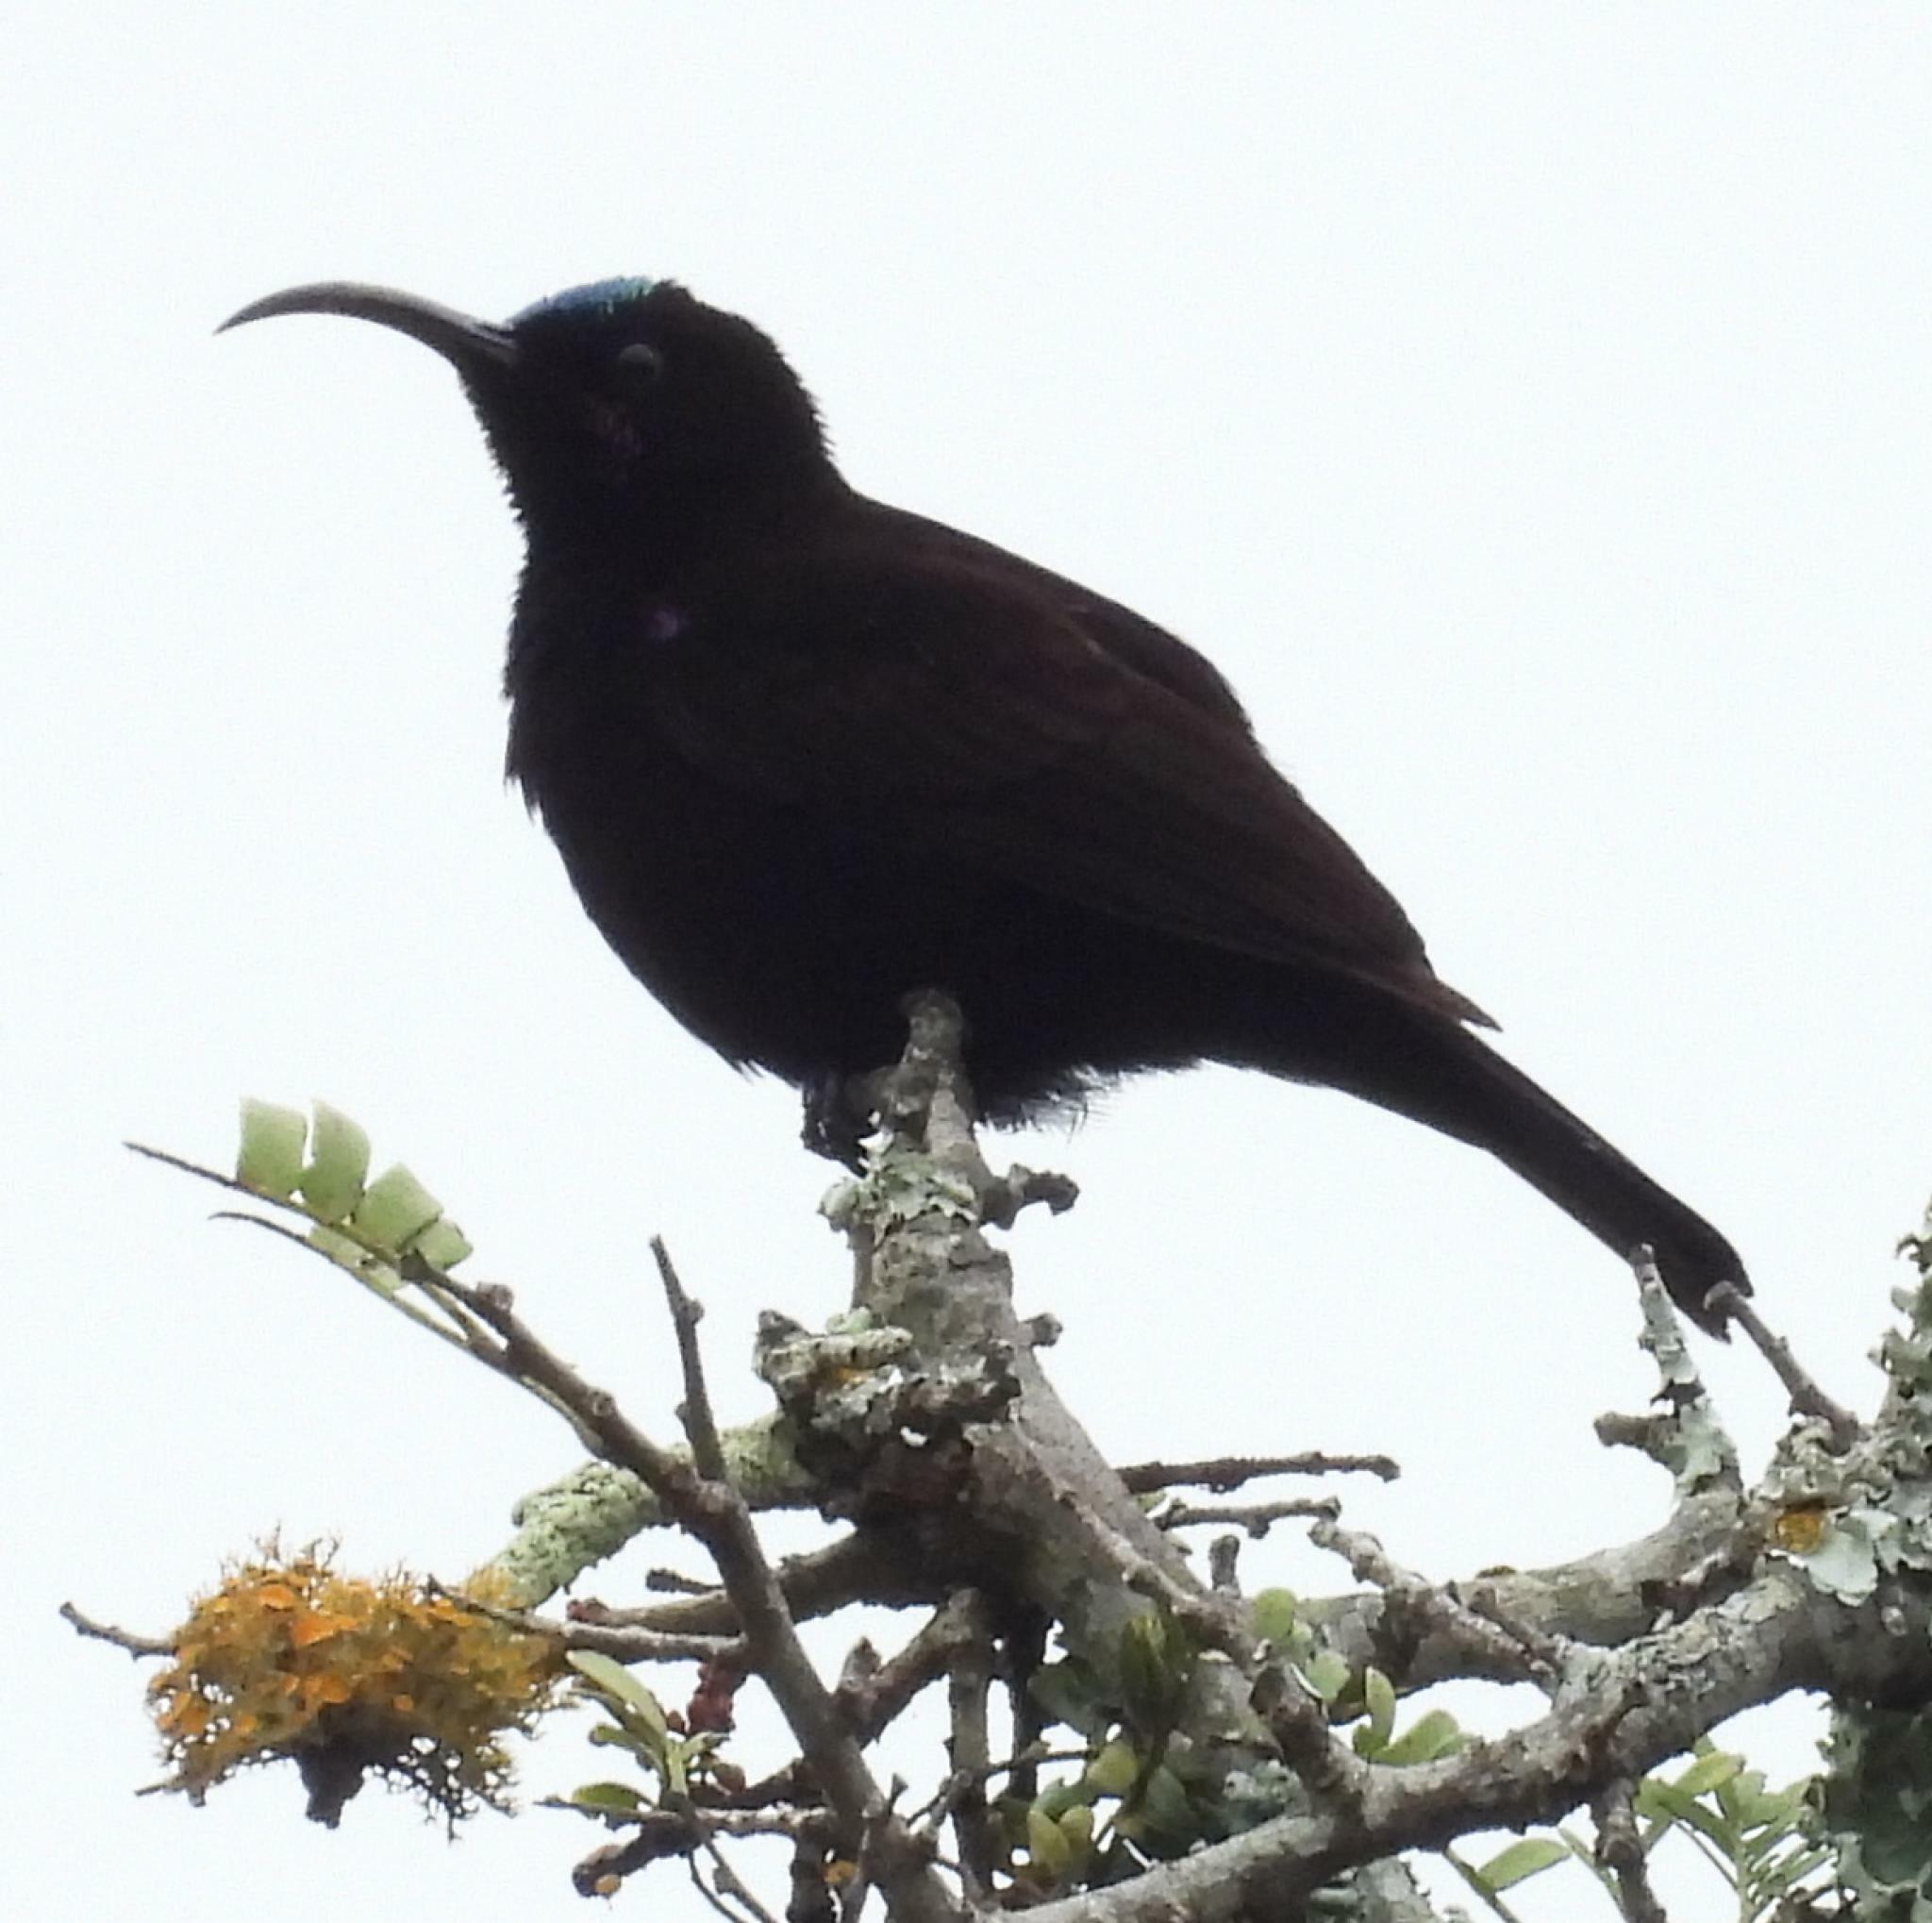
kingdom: Animalia
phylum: Chordata
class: Aves
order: Passeriformes
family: Nectariniidae
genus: Chalcomitra
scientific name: Chalcomitra amethystina
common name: Amethyst sunbird
